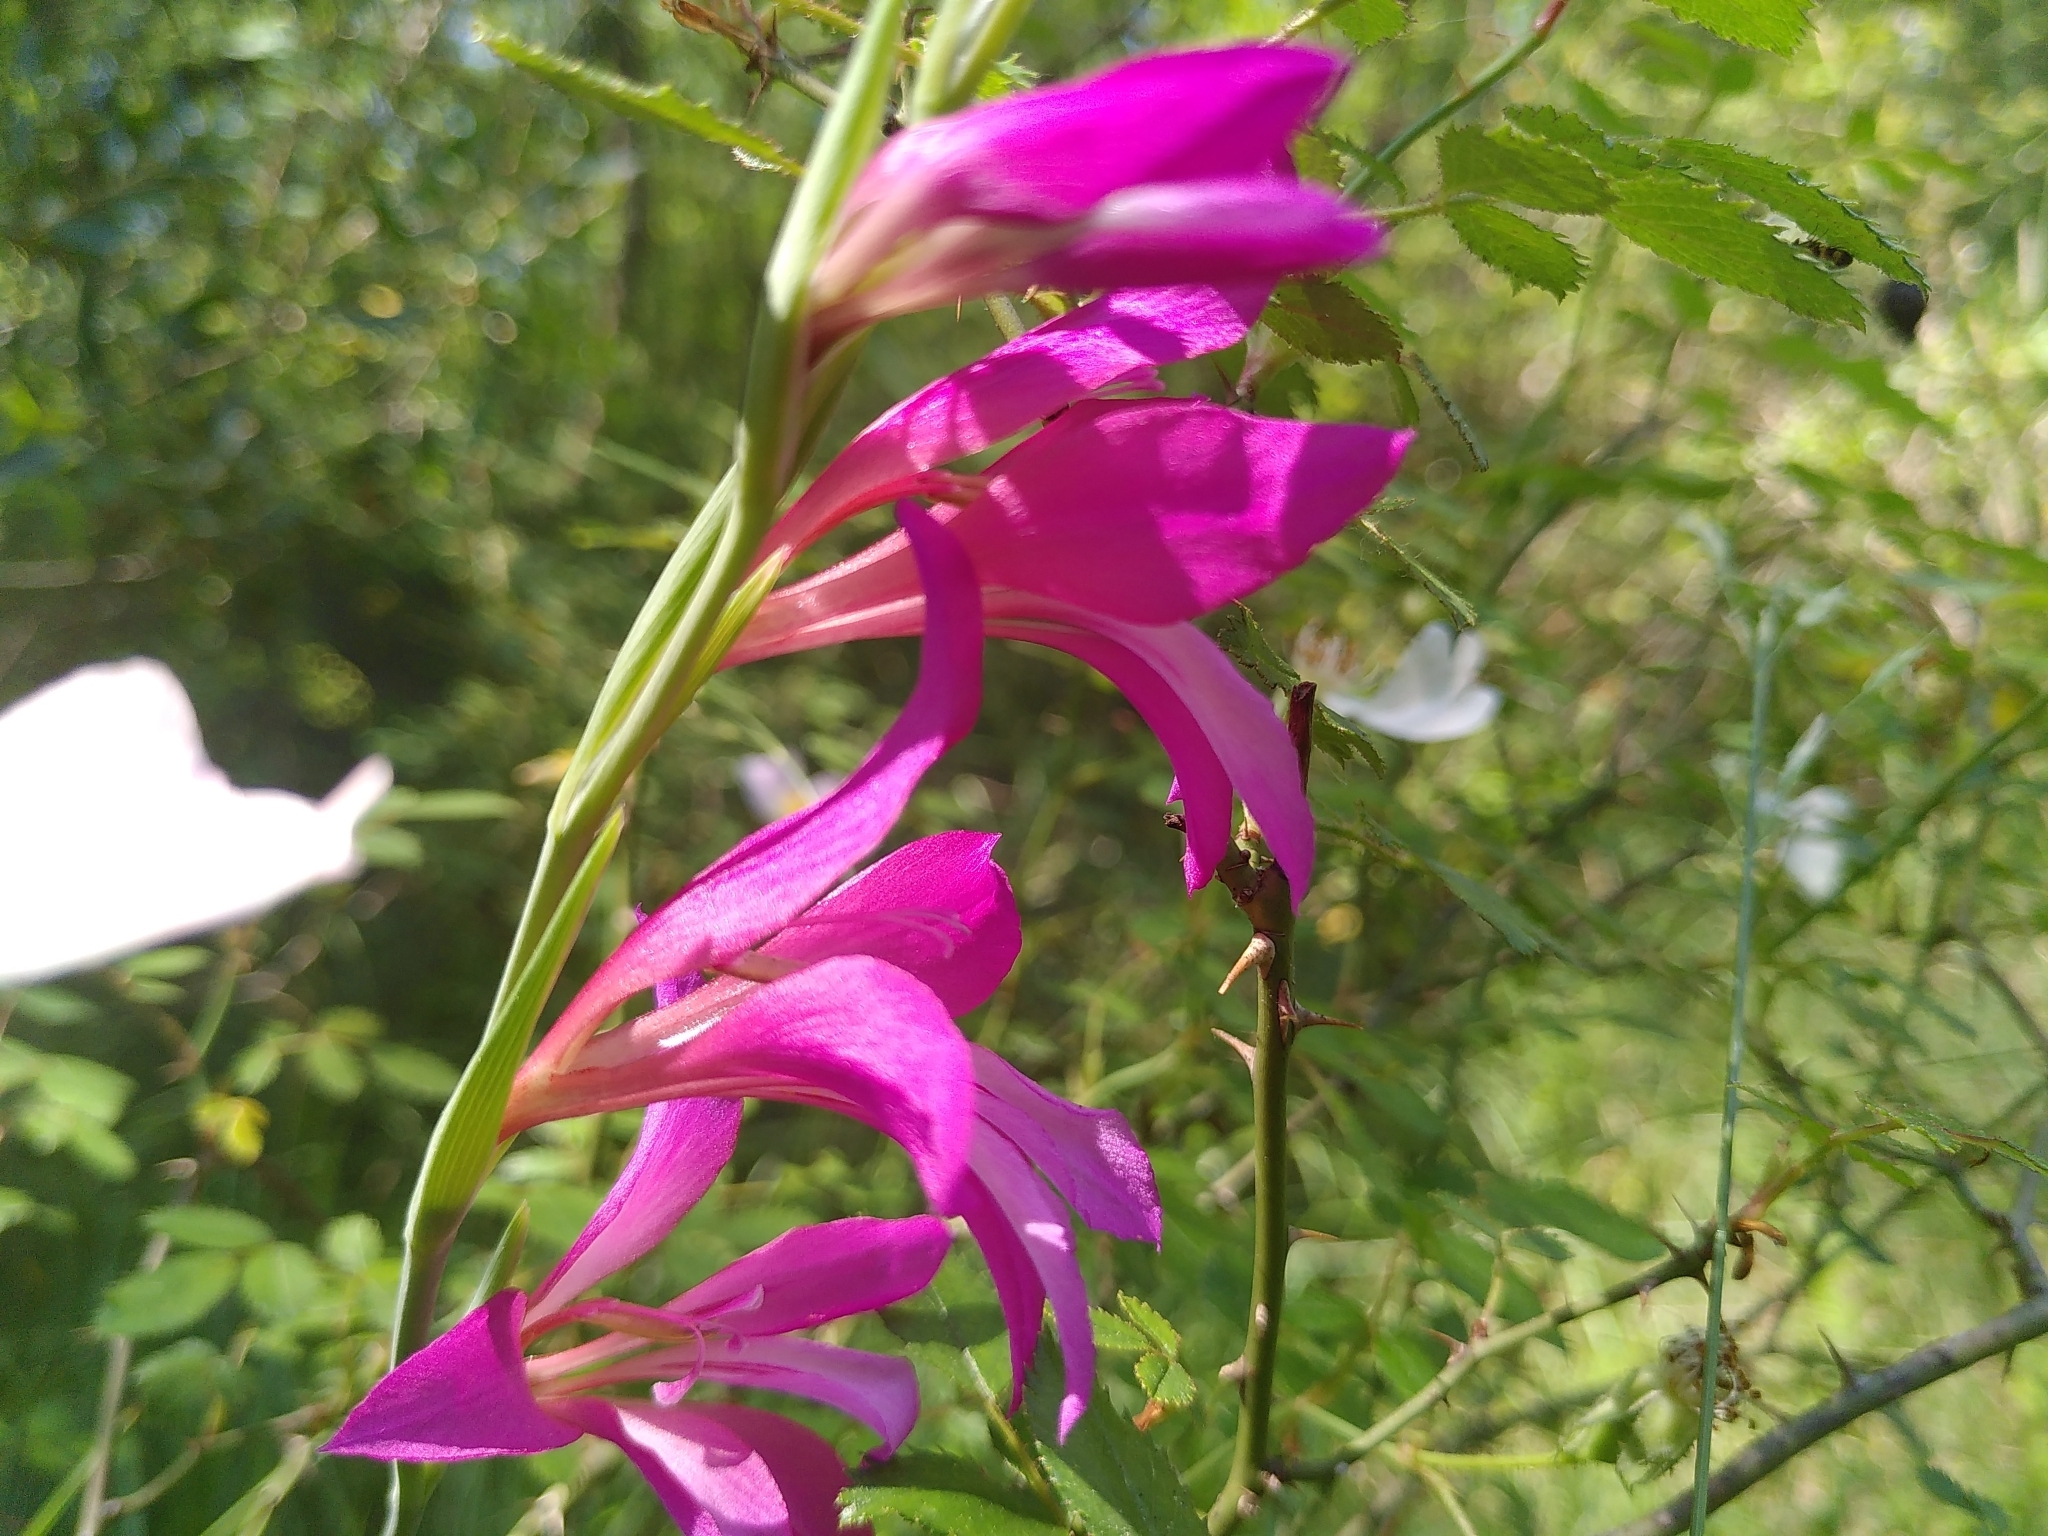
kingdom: Plantae
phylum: Tracheophyta
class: Liliopsida
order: Asparagales
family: Iridaceae
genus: Gladiolus
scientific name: Gladiolus dubius
